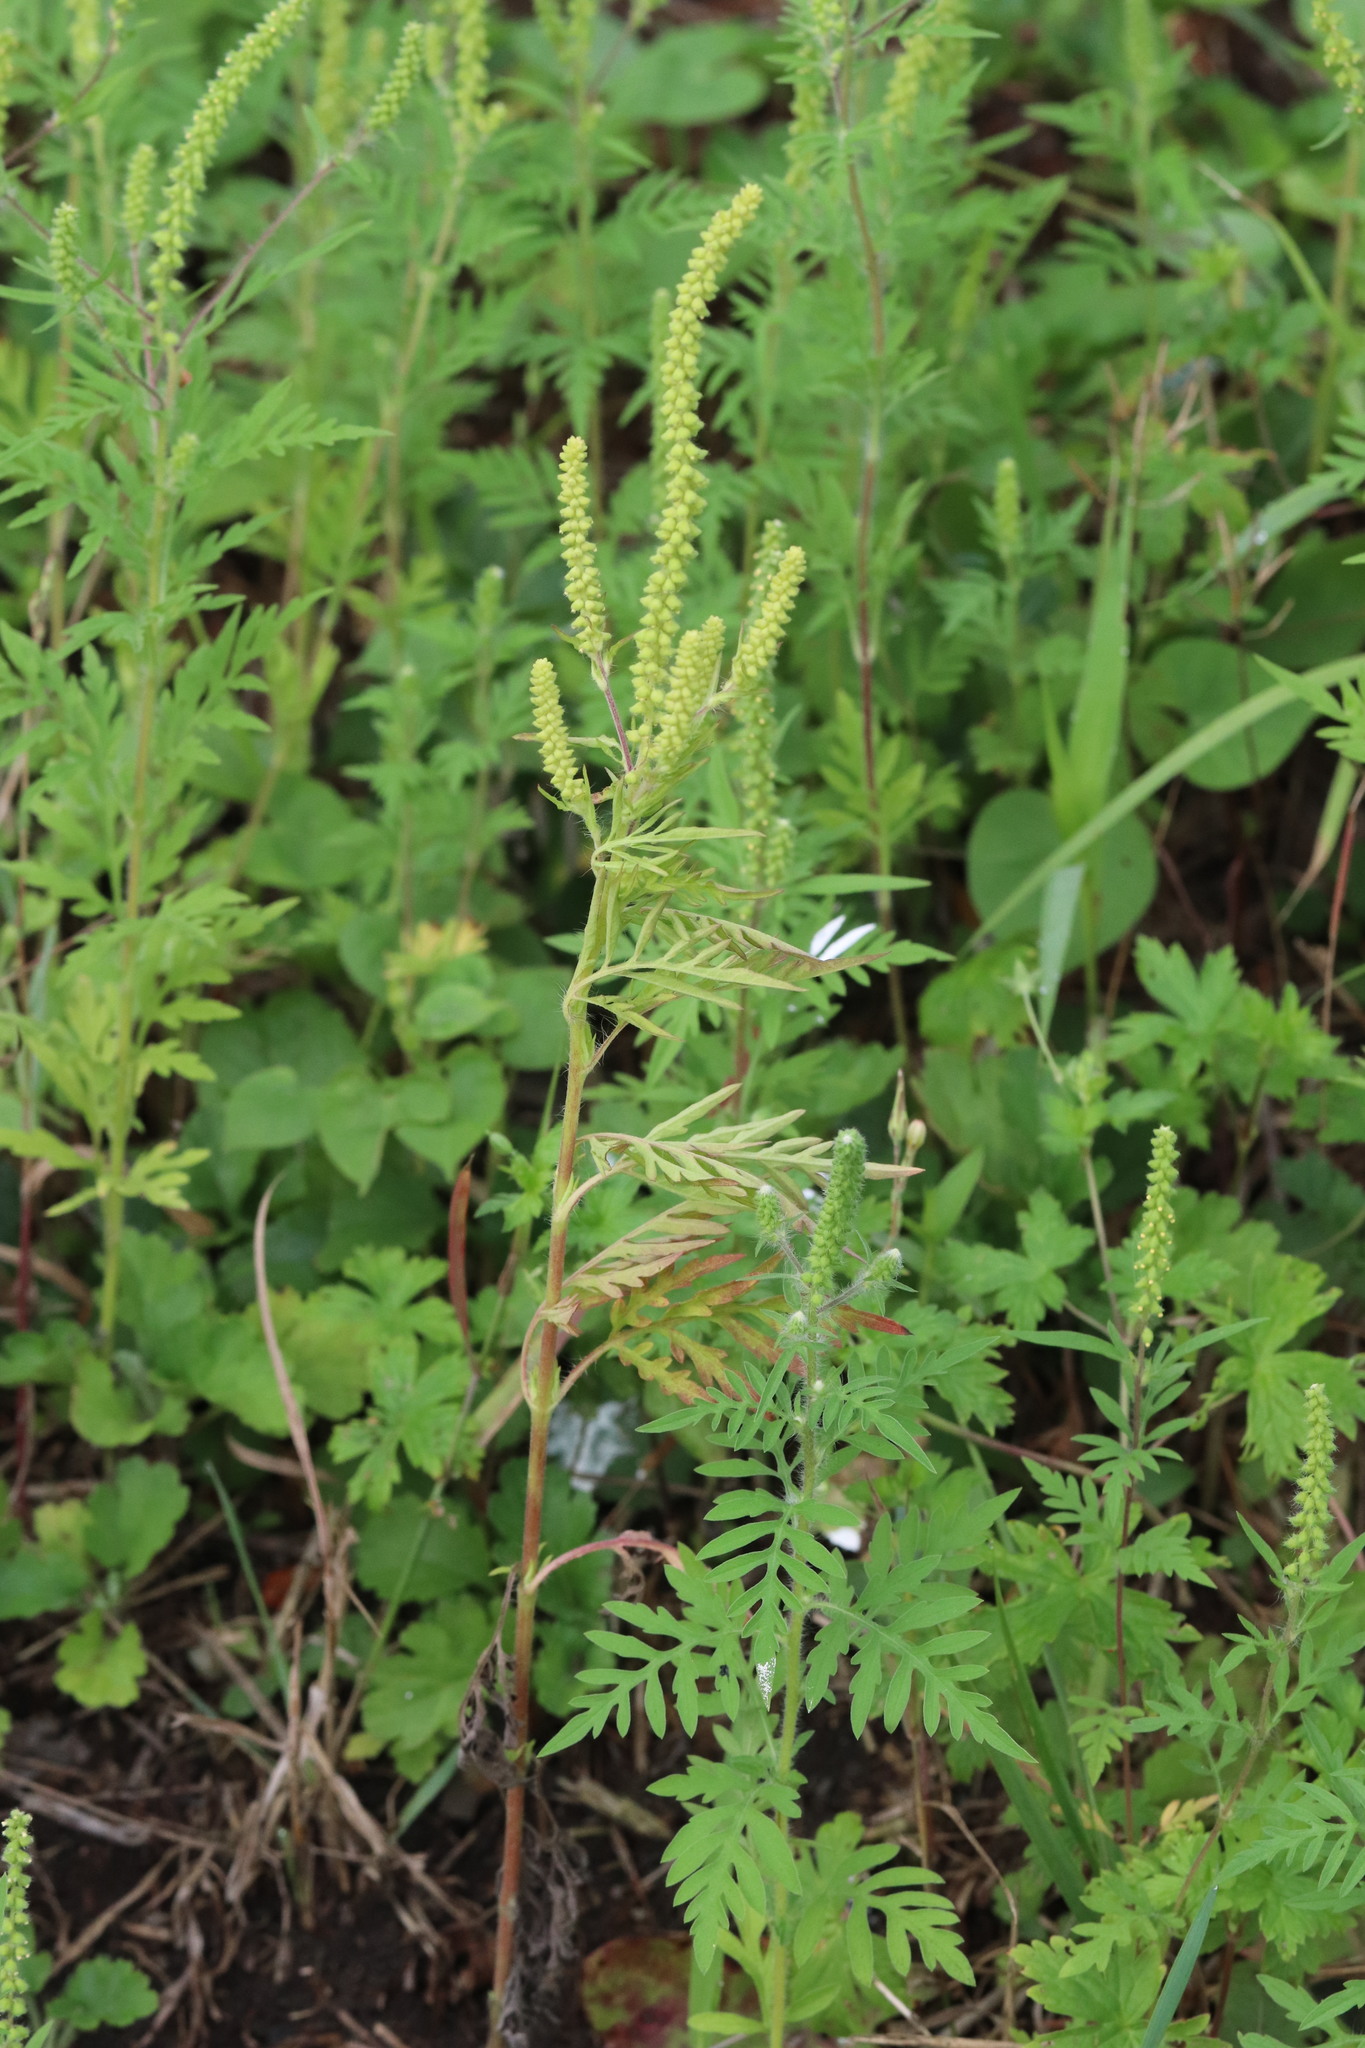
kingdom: Plantae
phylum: Tracheophyta
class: Magnoliopsida
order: Asterales
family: Asteraceae
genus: Ambrosia
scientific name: Ambrosia artemisiifolia
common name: Annual ragweed
